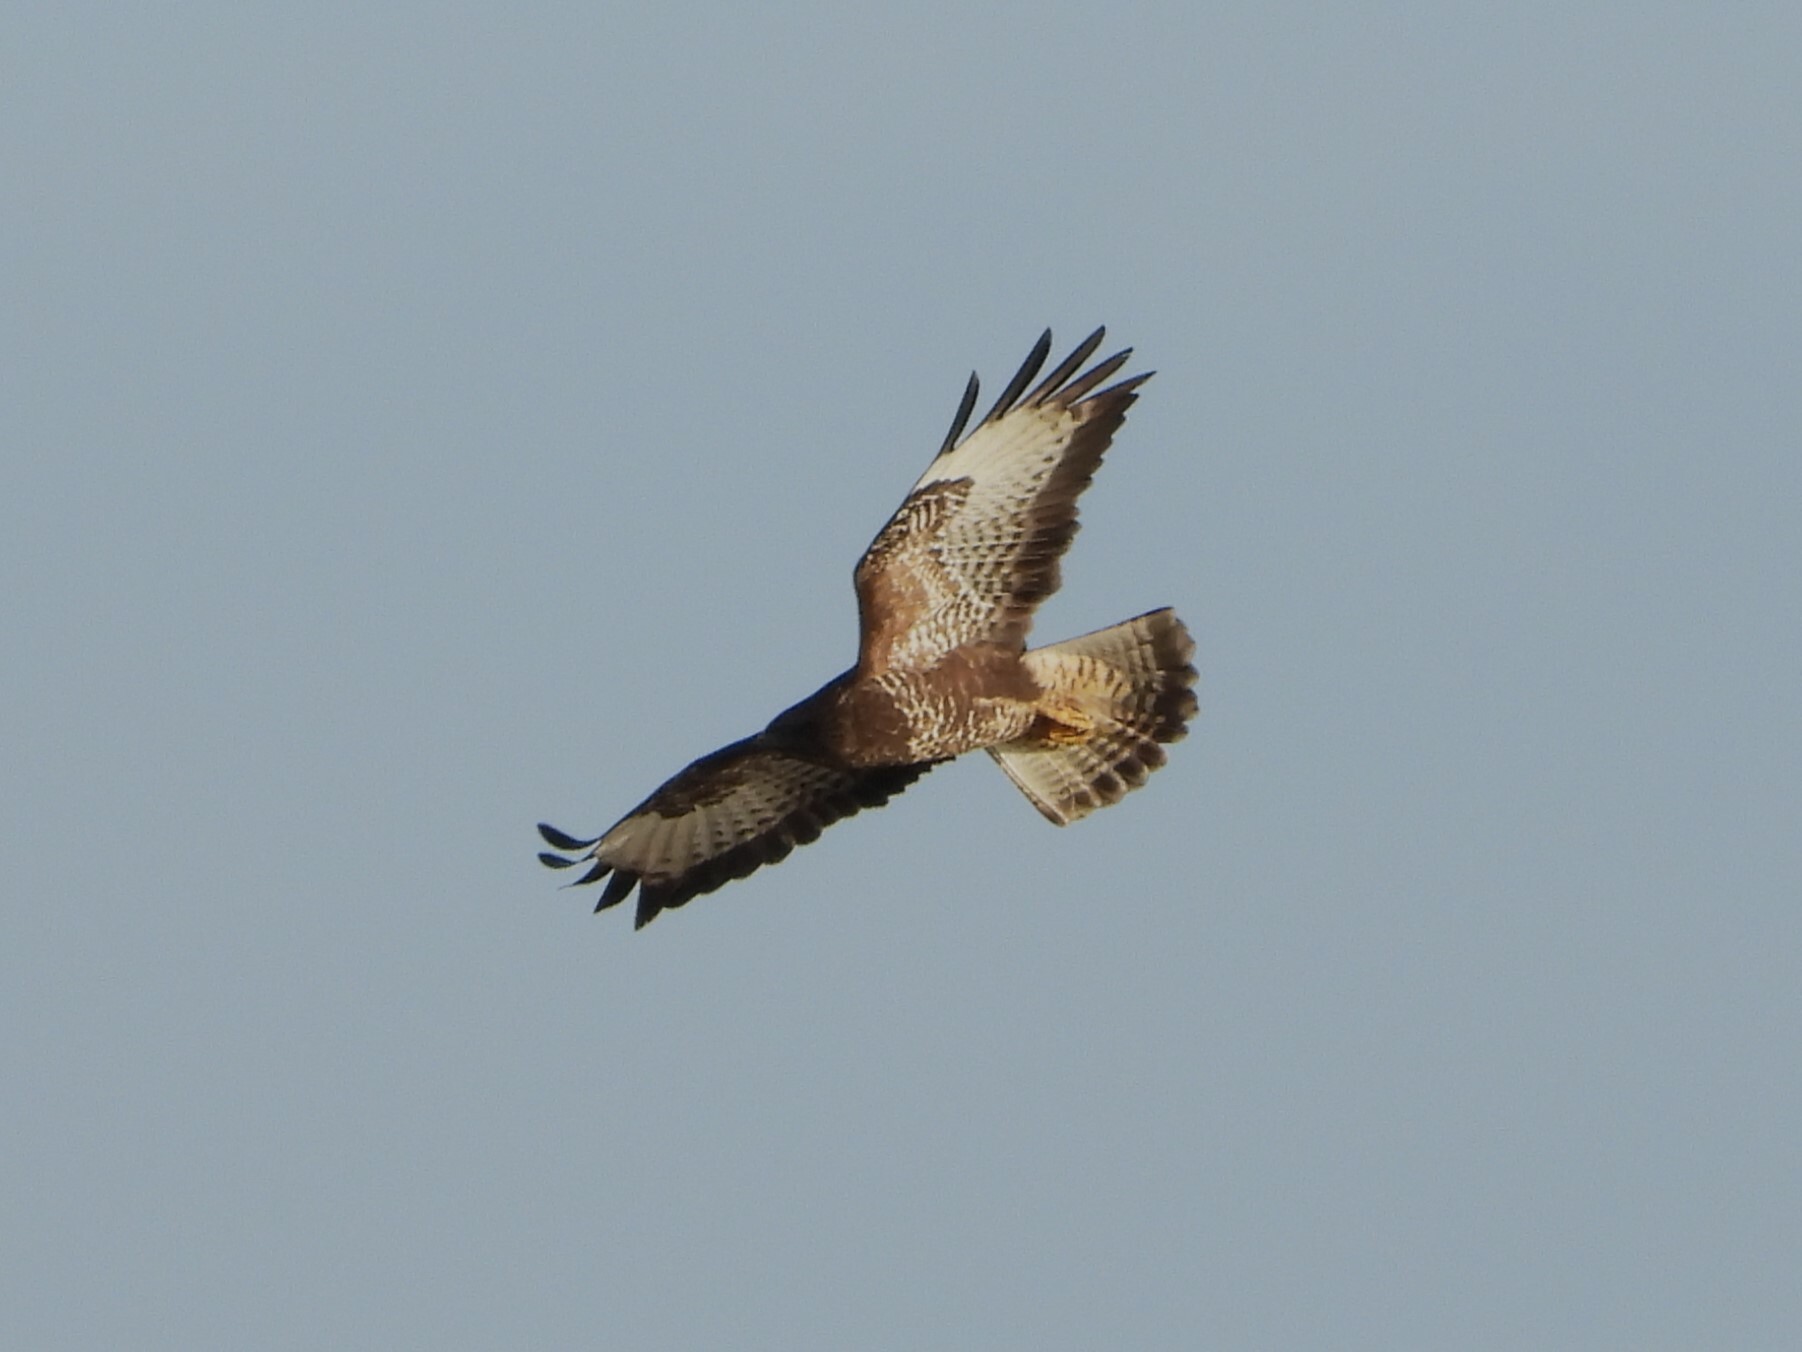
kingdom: Animalia
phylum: Chordata
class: Aves
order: Accipitriformes
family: Accipitridae
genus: Buteo
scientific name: Buteo buteo
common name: Common buzzard
